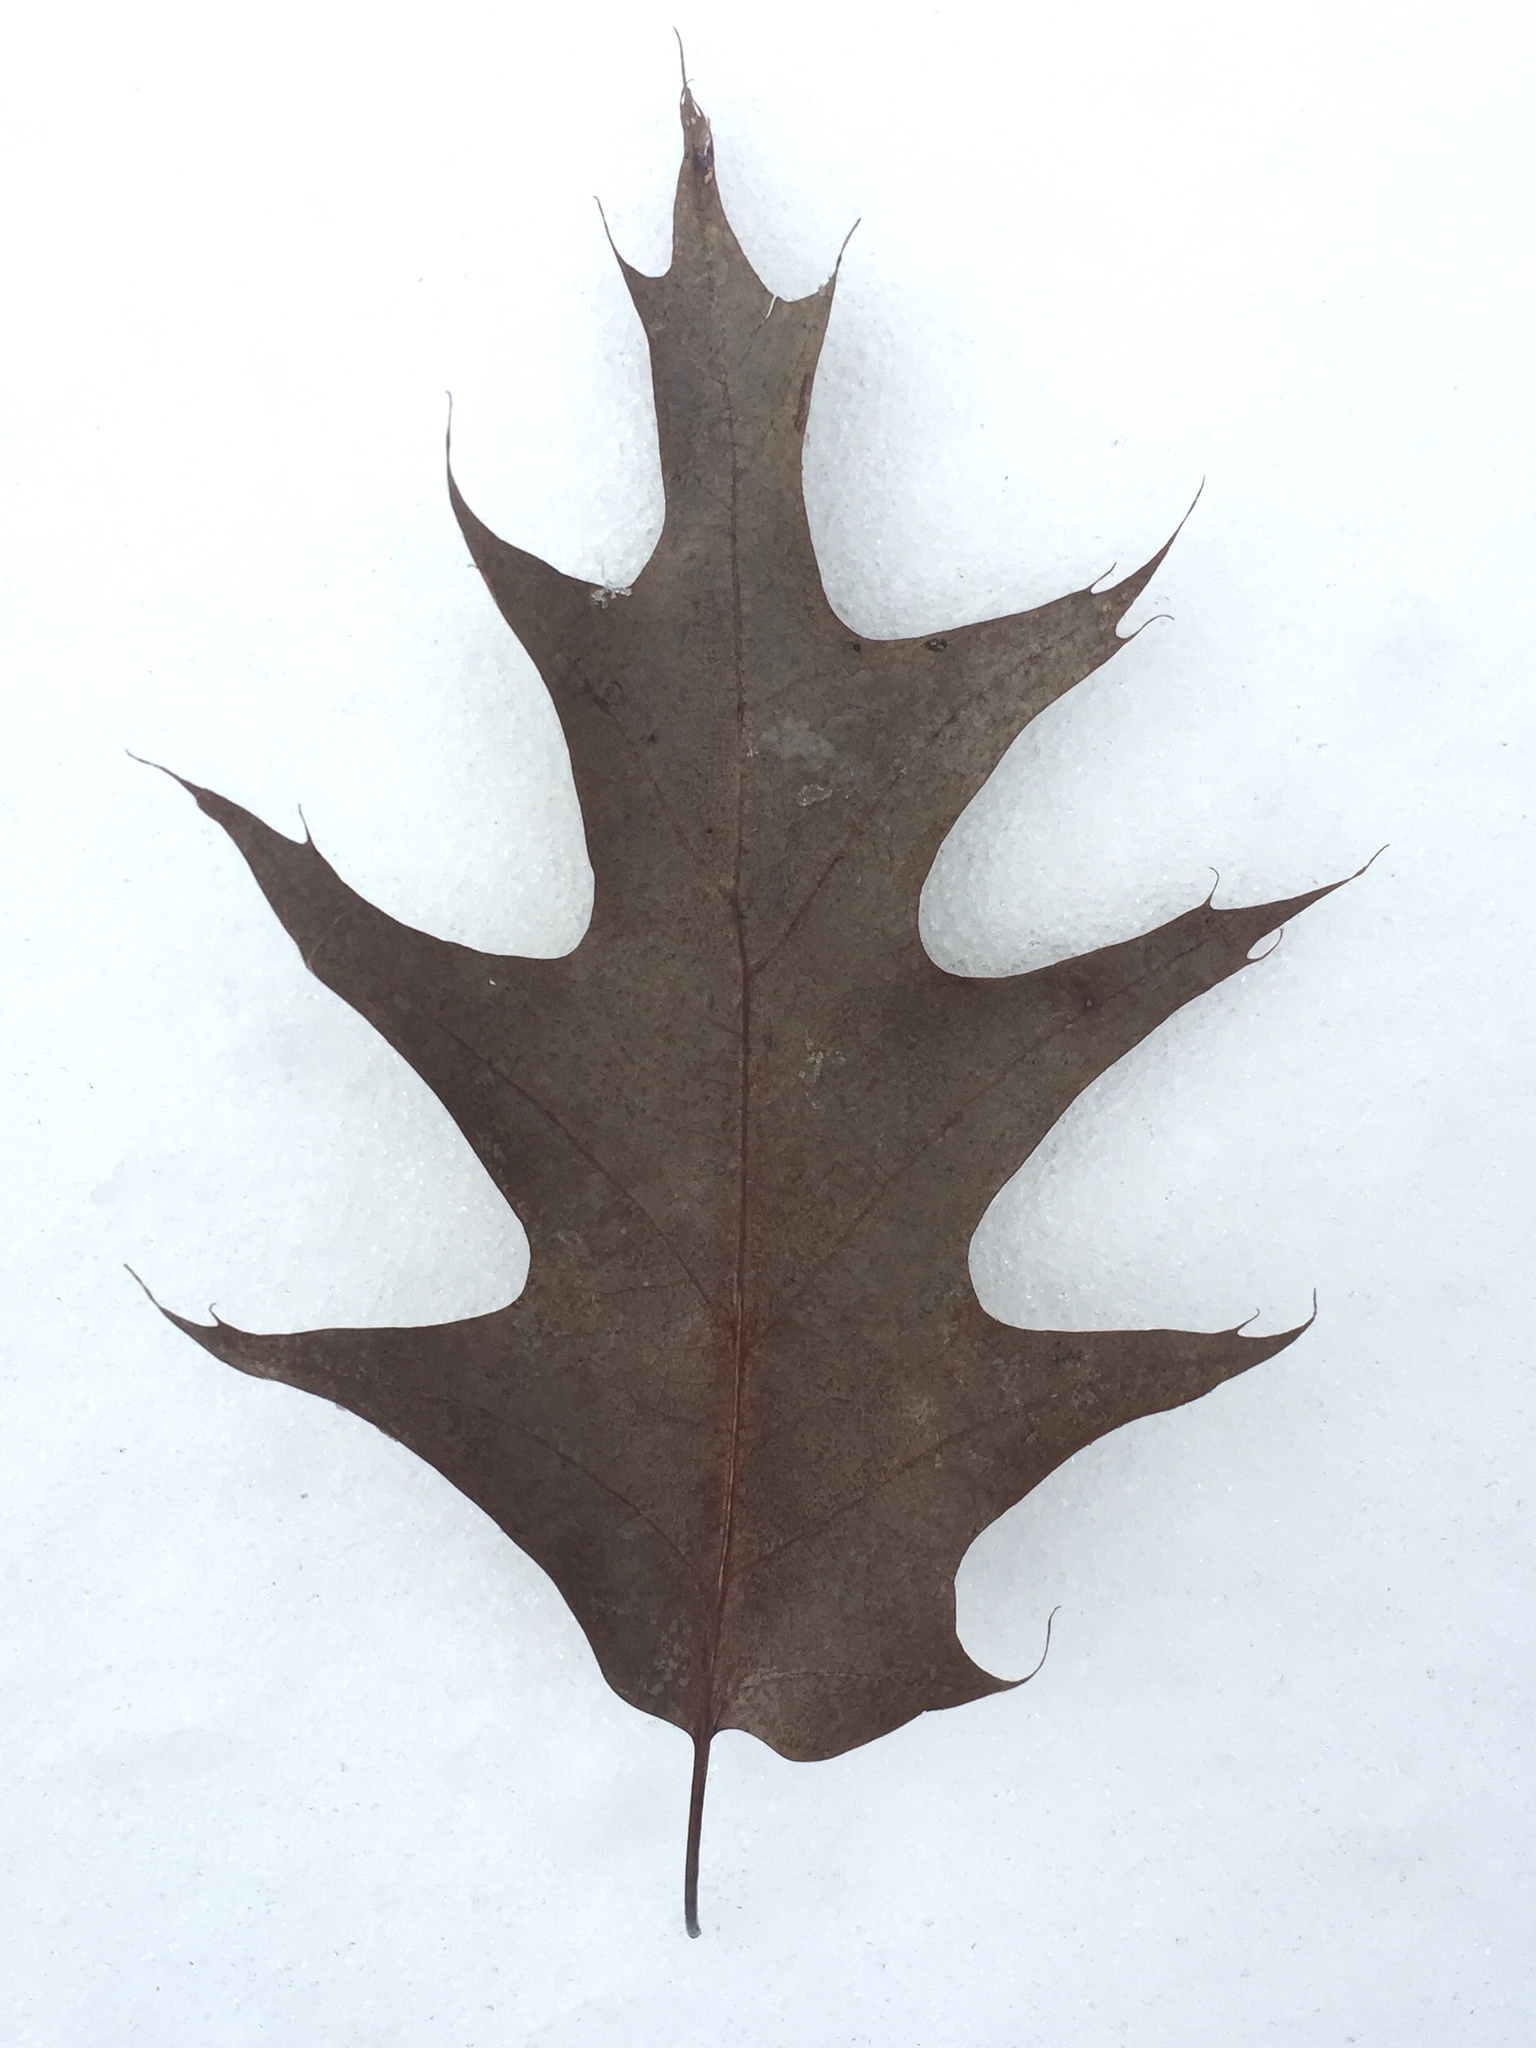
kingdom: Plantae
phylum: Tracheophyta
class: Magnoliopsida
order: Fagales
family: Fagaceae
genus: Quercus
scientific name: Quercus rubra
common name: Red oak
